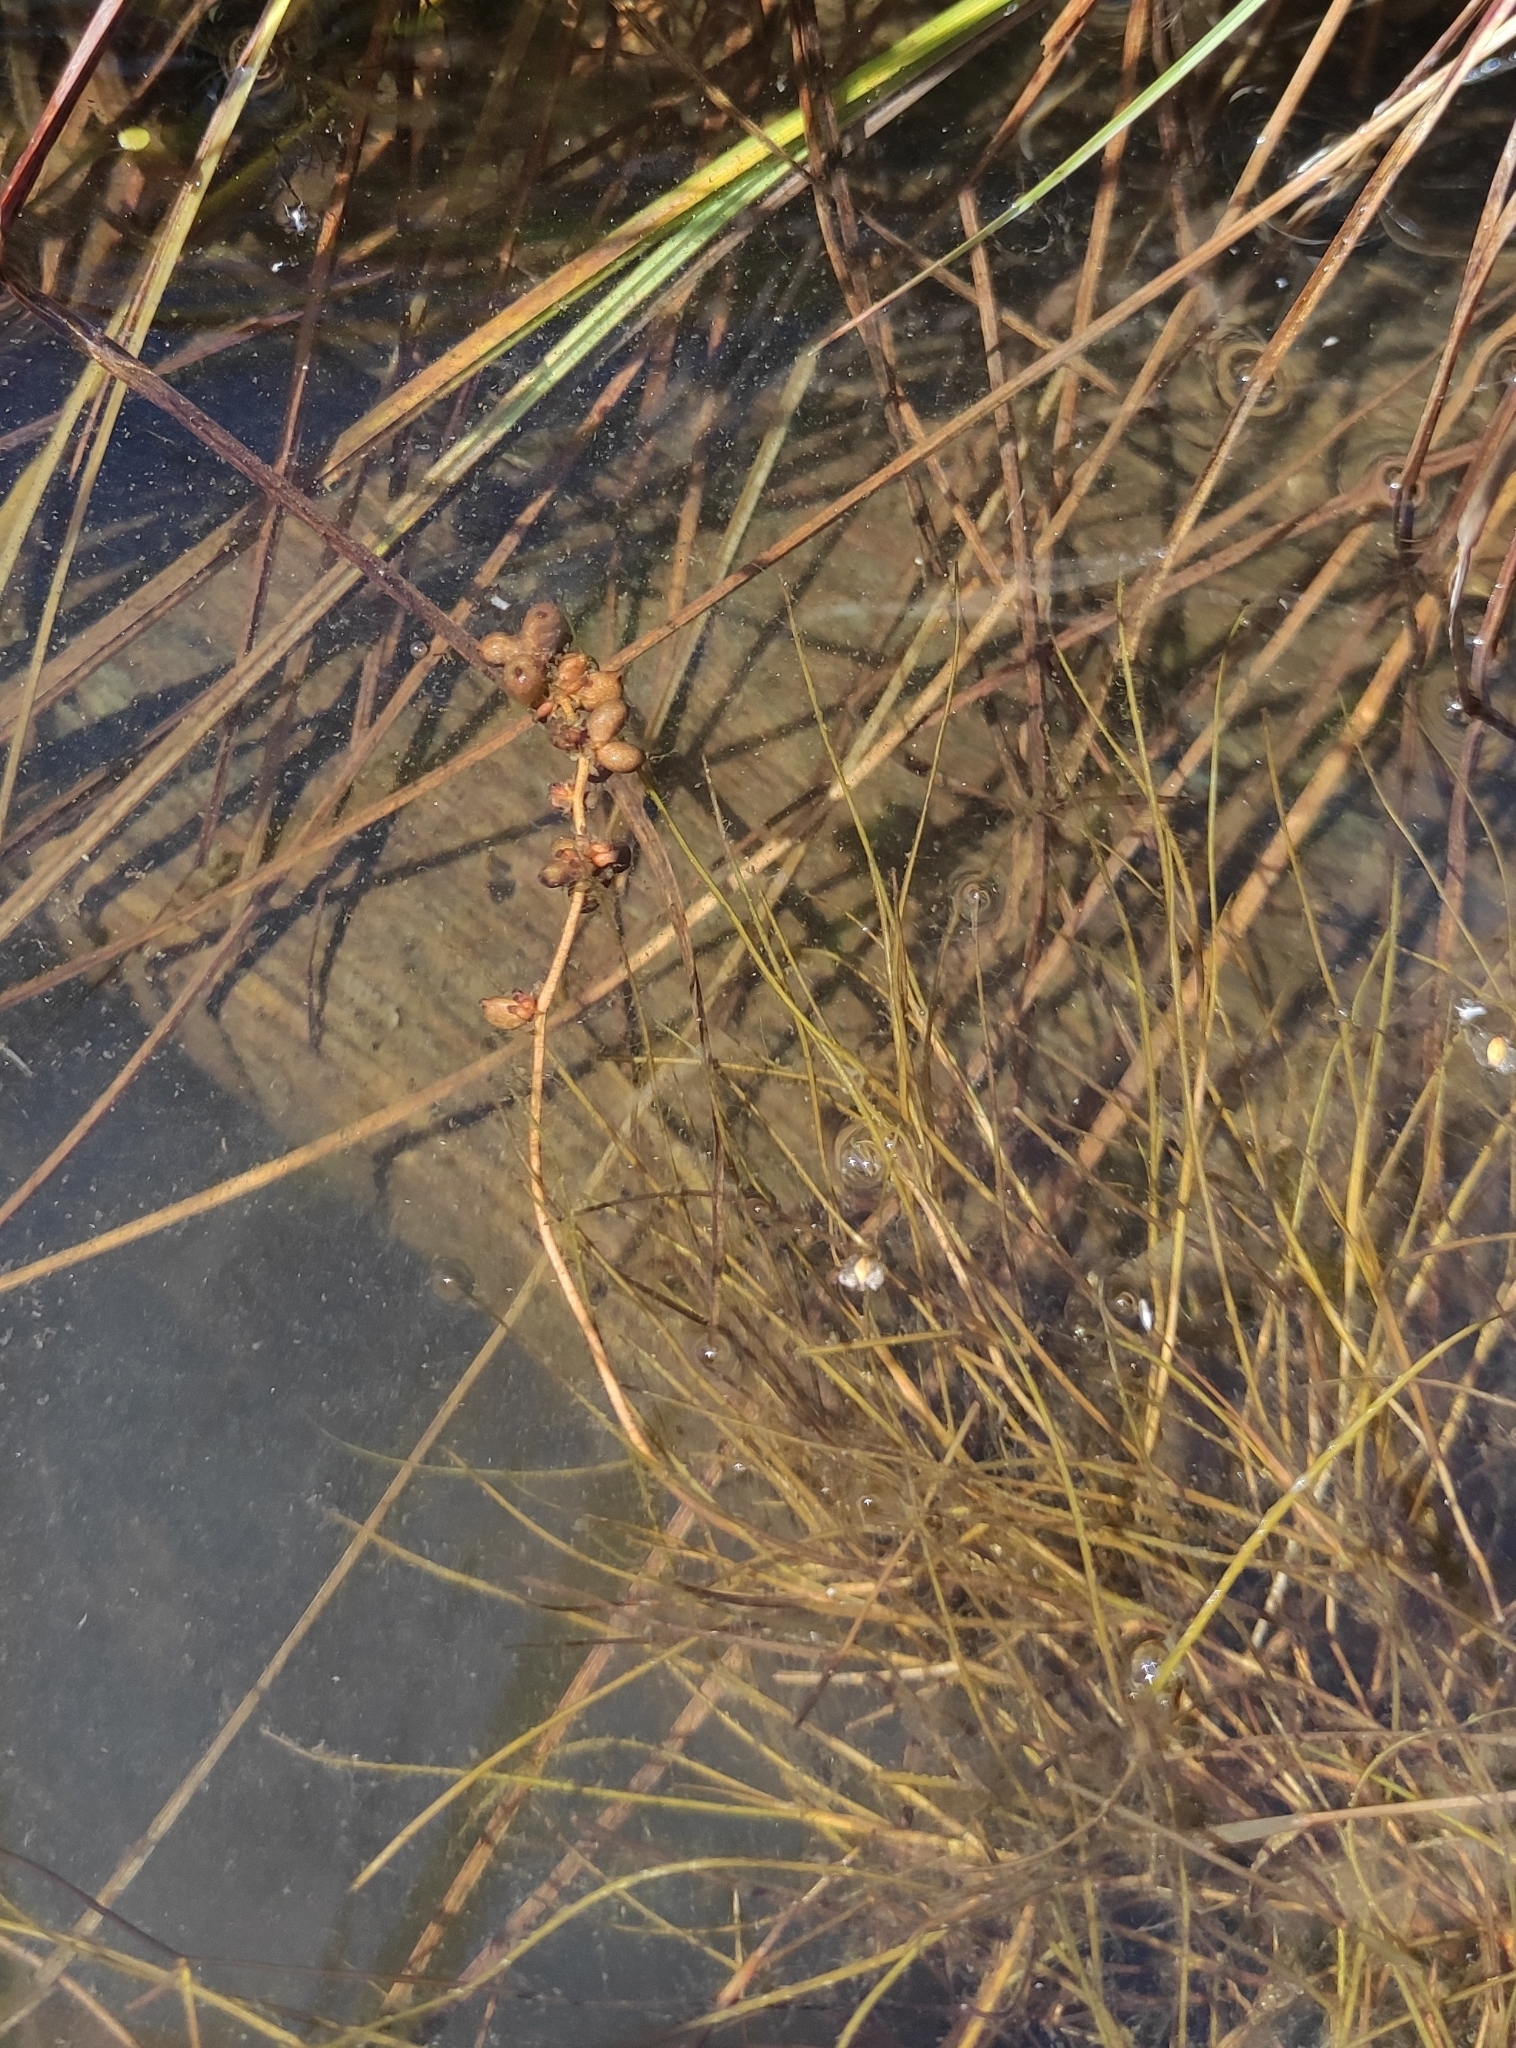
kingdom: Plantae
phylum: Tracheophyta
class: Liliopsida
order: Alismatales
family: Potamogetonaceae
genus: Stuckenia
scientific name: Stuckenia pectinata
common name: Sago pondweed
